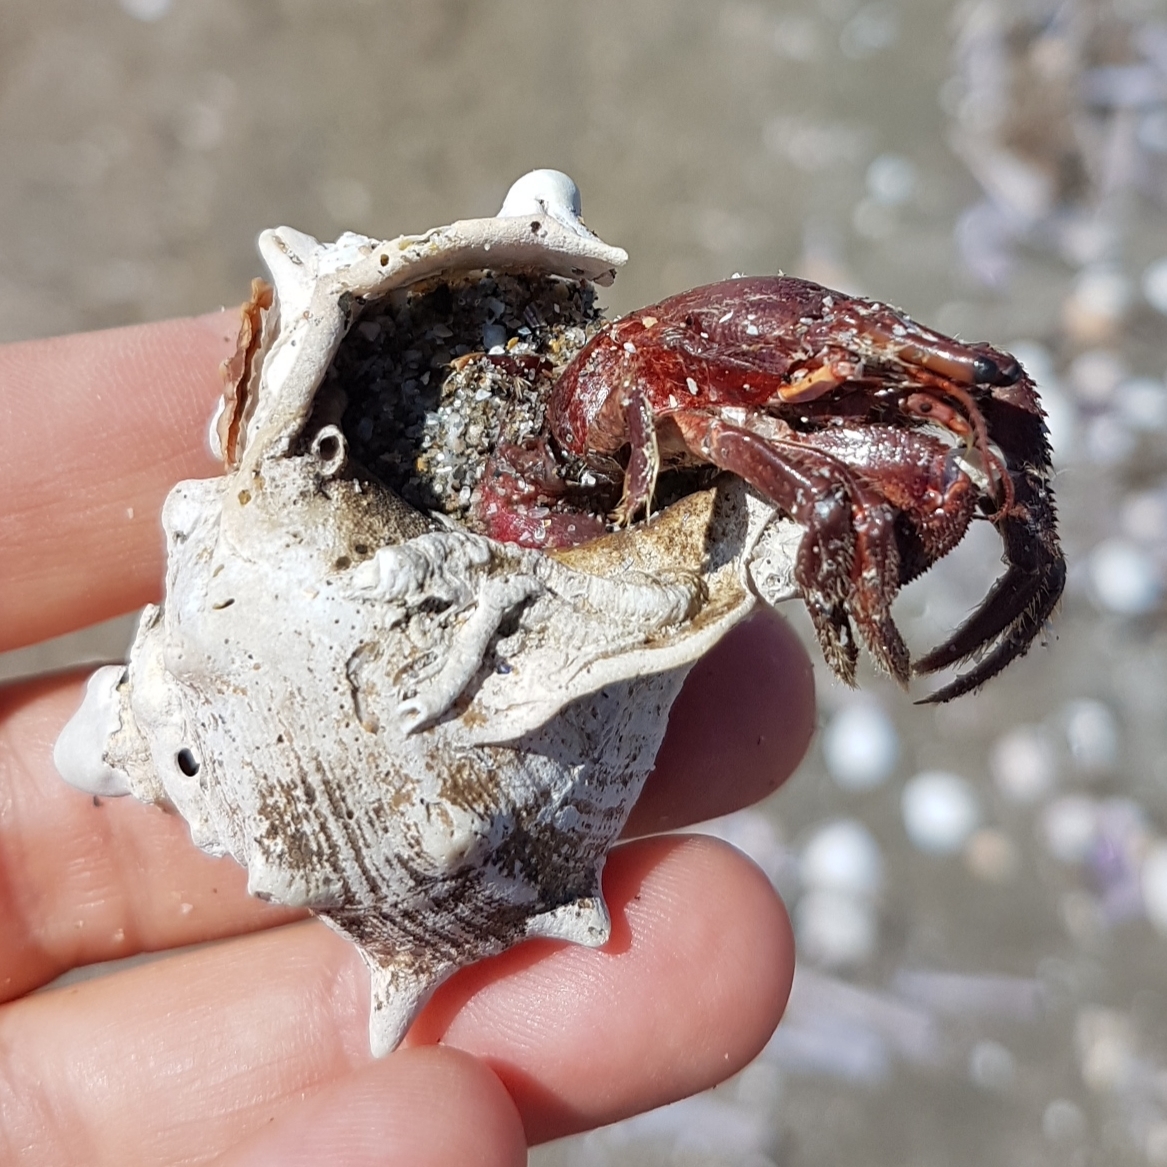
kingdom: Animalia
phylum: Mollusca
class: Gastropoda
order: Neogastropoda
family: Muricidae
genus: Bolinus
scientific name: Bolinus brandaris
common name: Dye murex
